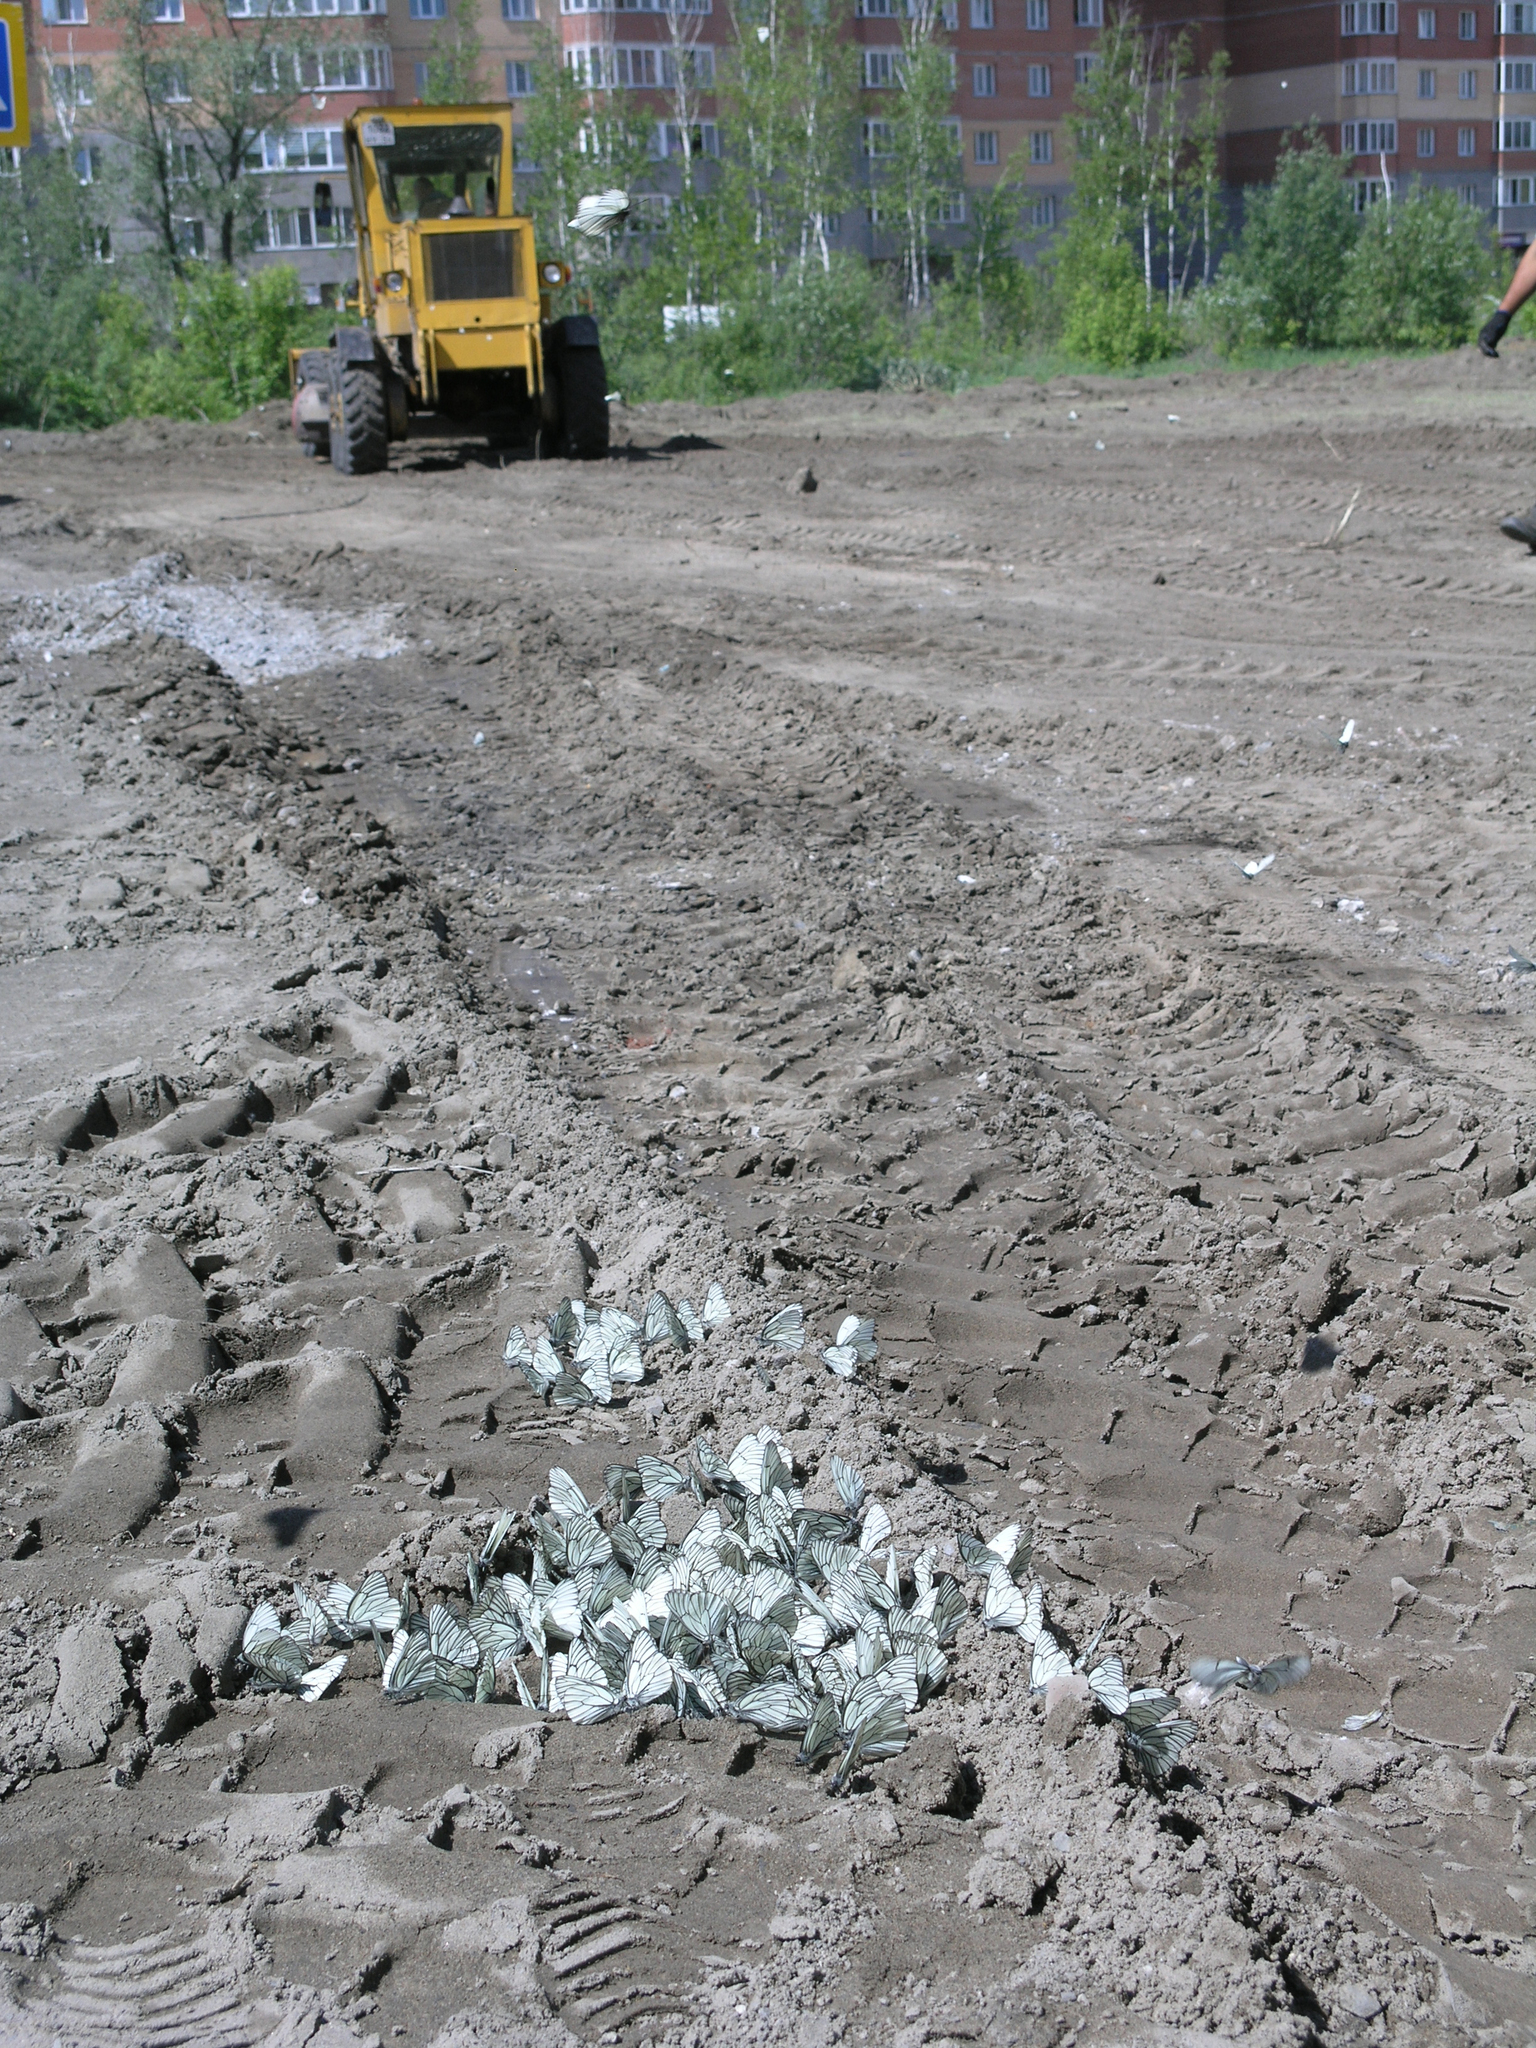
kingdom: Animalia
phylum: Arthropoda
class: Insecta
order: Lepidoptera
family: Pieridae
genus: Aporia
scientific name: Aporia crataegi
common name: Black-veined white
